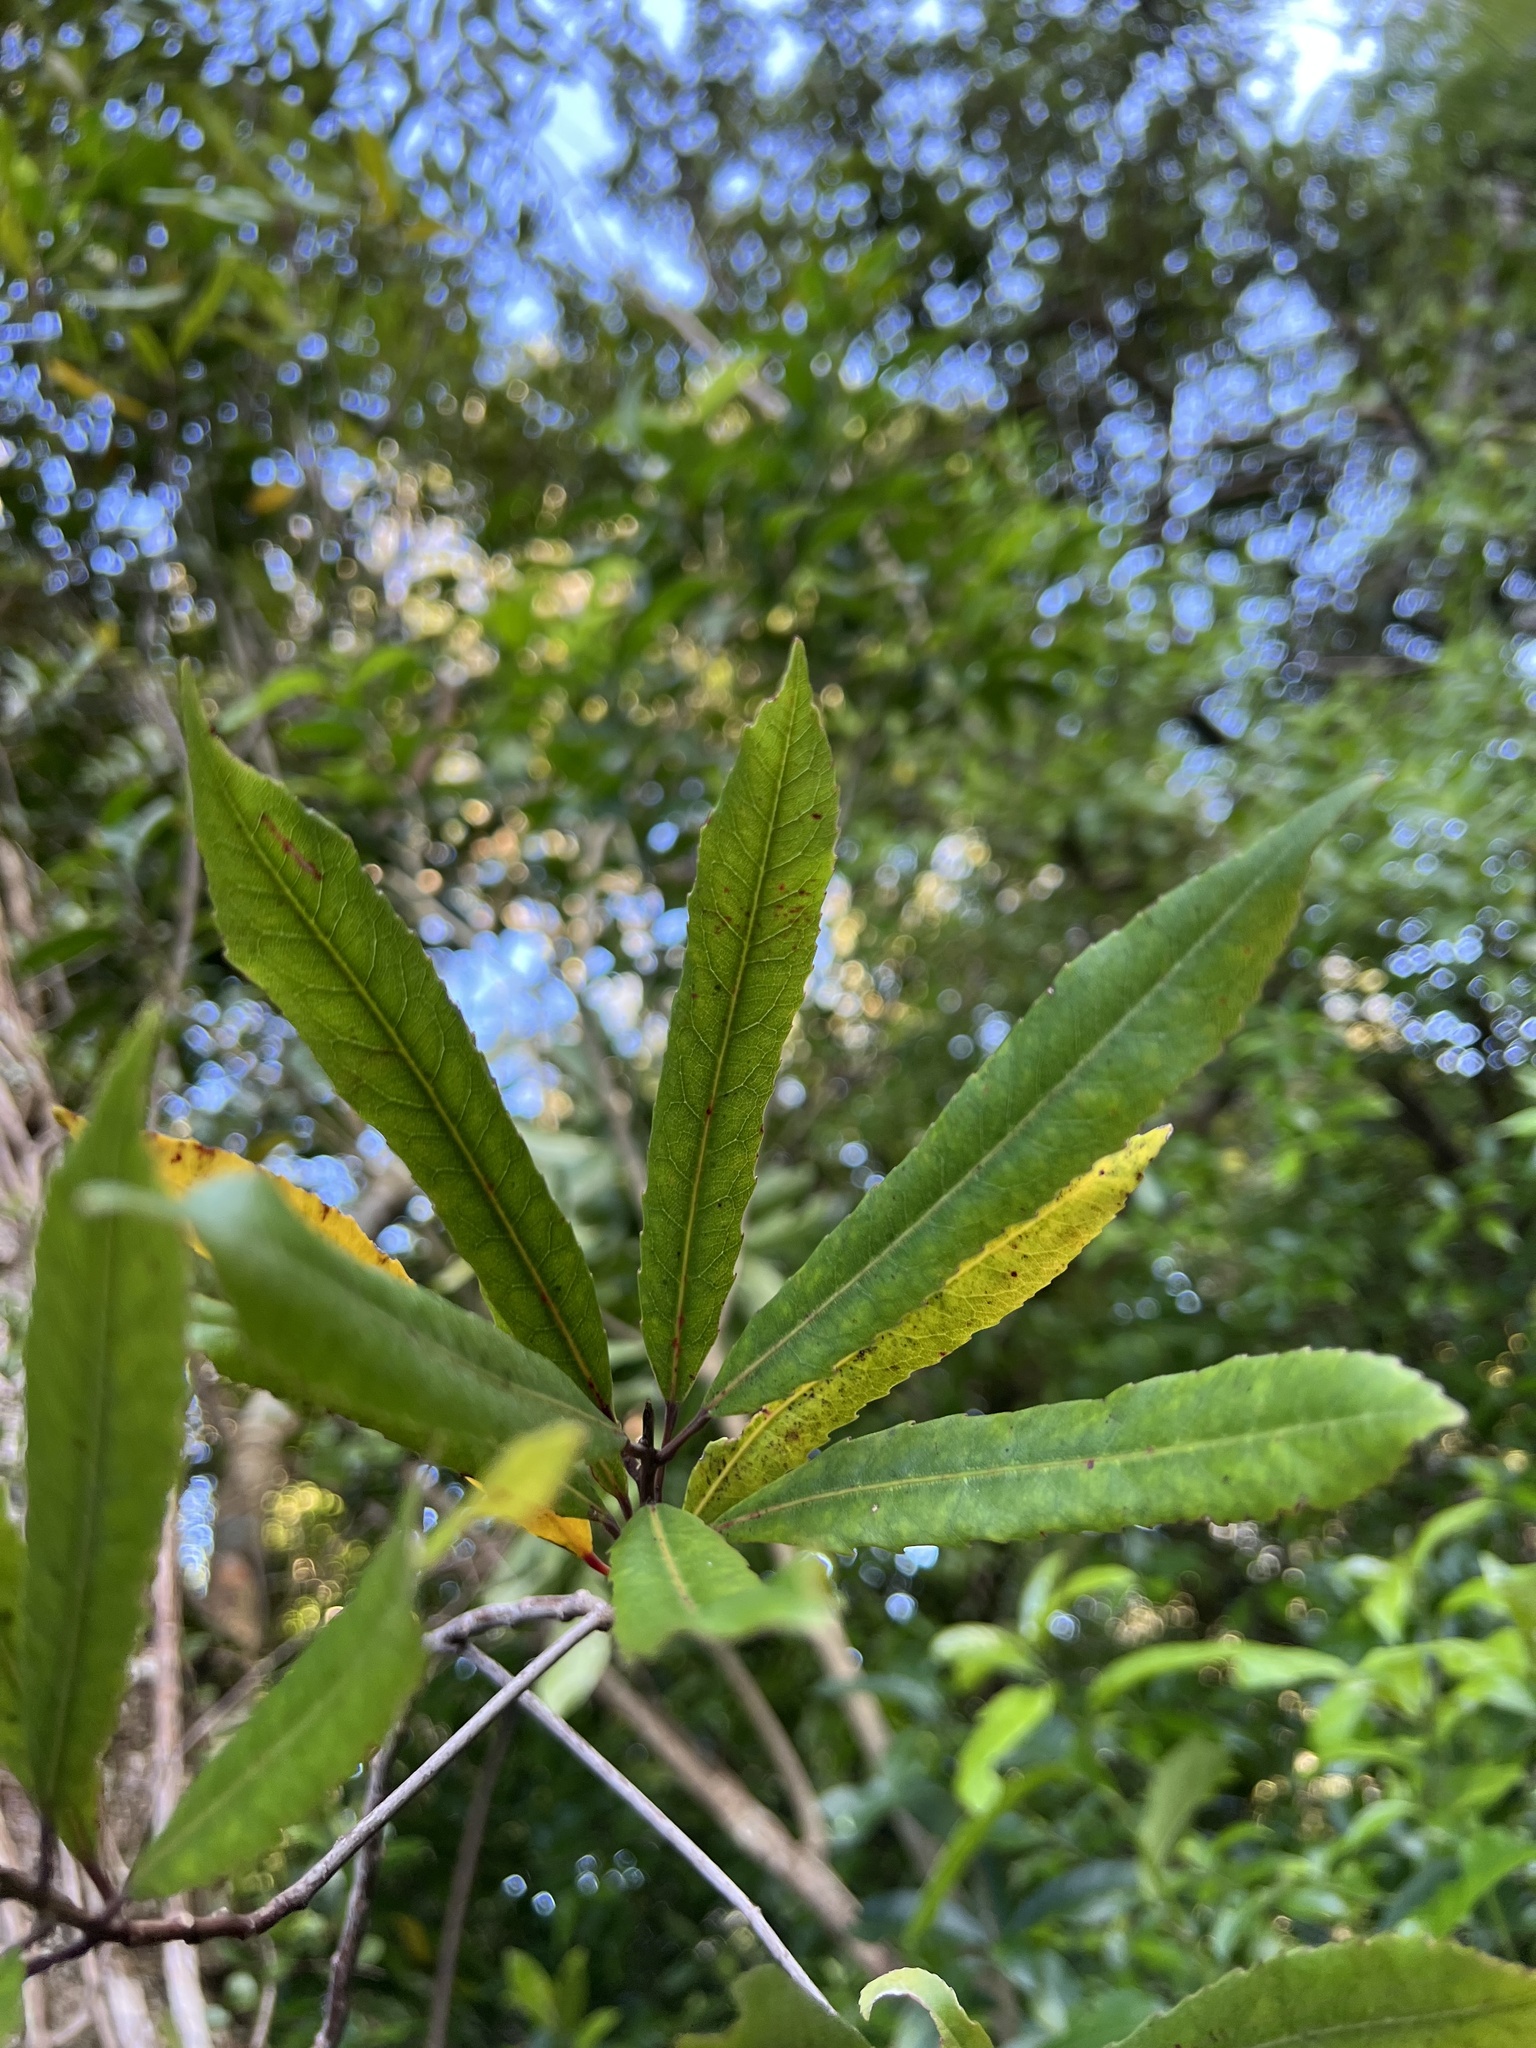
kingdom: Plantae
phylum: Tracheophyta
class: Magnoliopsida
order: Oxalidales
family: Elaeocarpaceae
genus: Elaeocarpus
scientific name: Elaeocarpus dentatus
